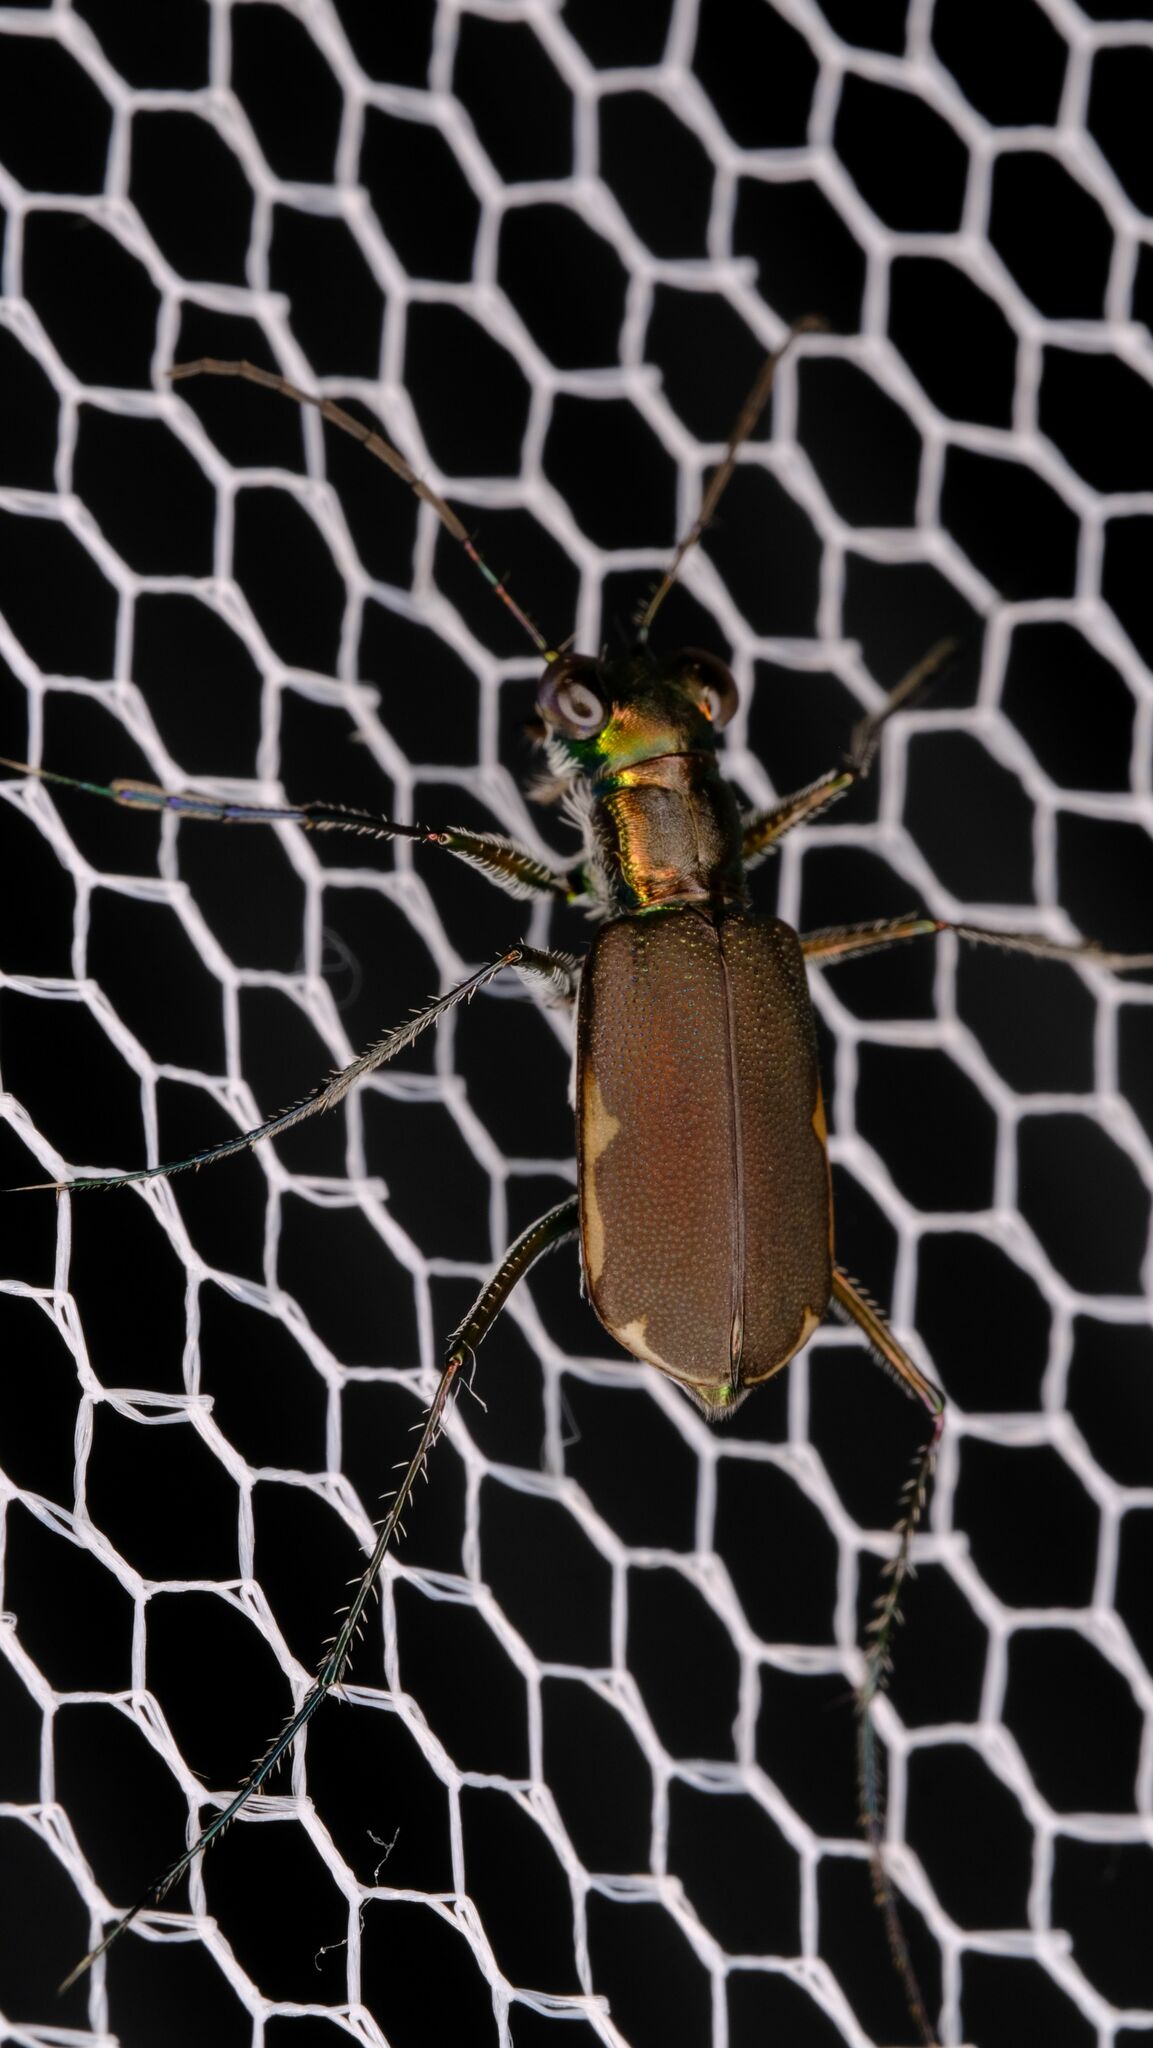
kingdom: Animalia
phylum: Arthropoda
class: Insecta
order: Coleoptera
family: Carabidae
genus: Myriochila
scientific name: Myriochila semicincta
